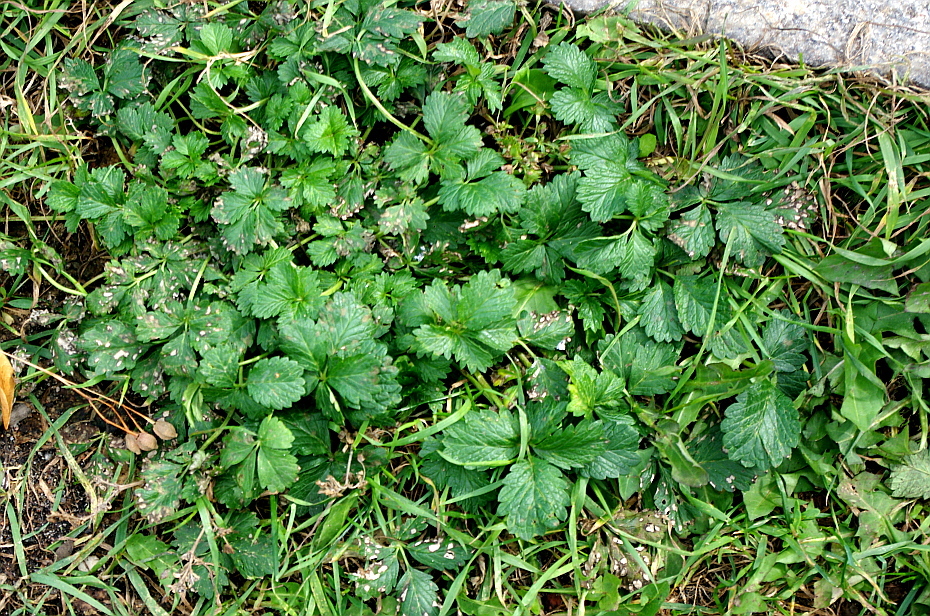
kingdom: Plantae
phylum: Tracheophyta
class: Magnoliopsida
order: Rosales
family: Rosaceae
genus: Potentilla
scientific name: Potentilla intermedia
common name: Downy cinquefoil
